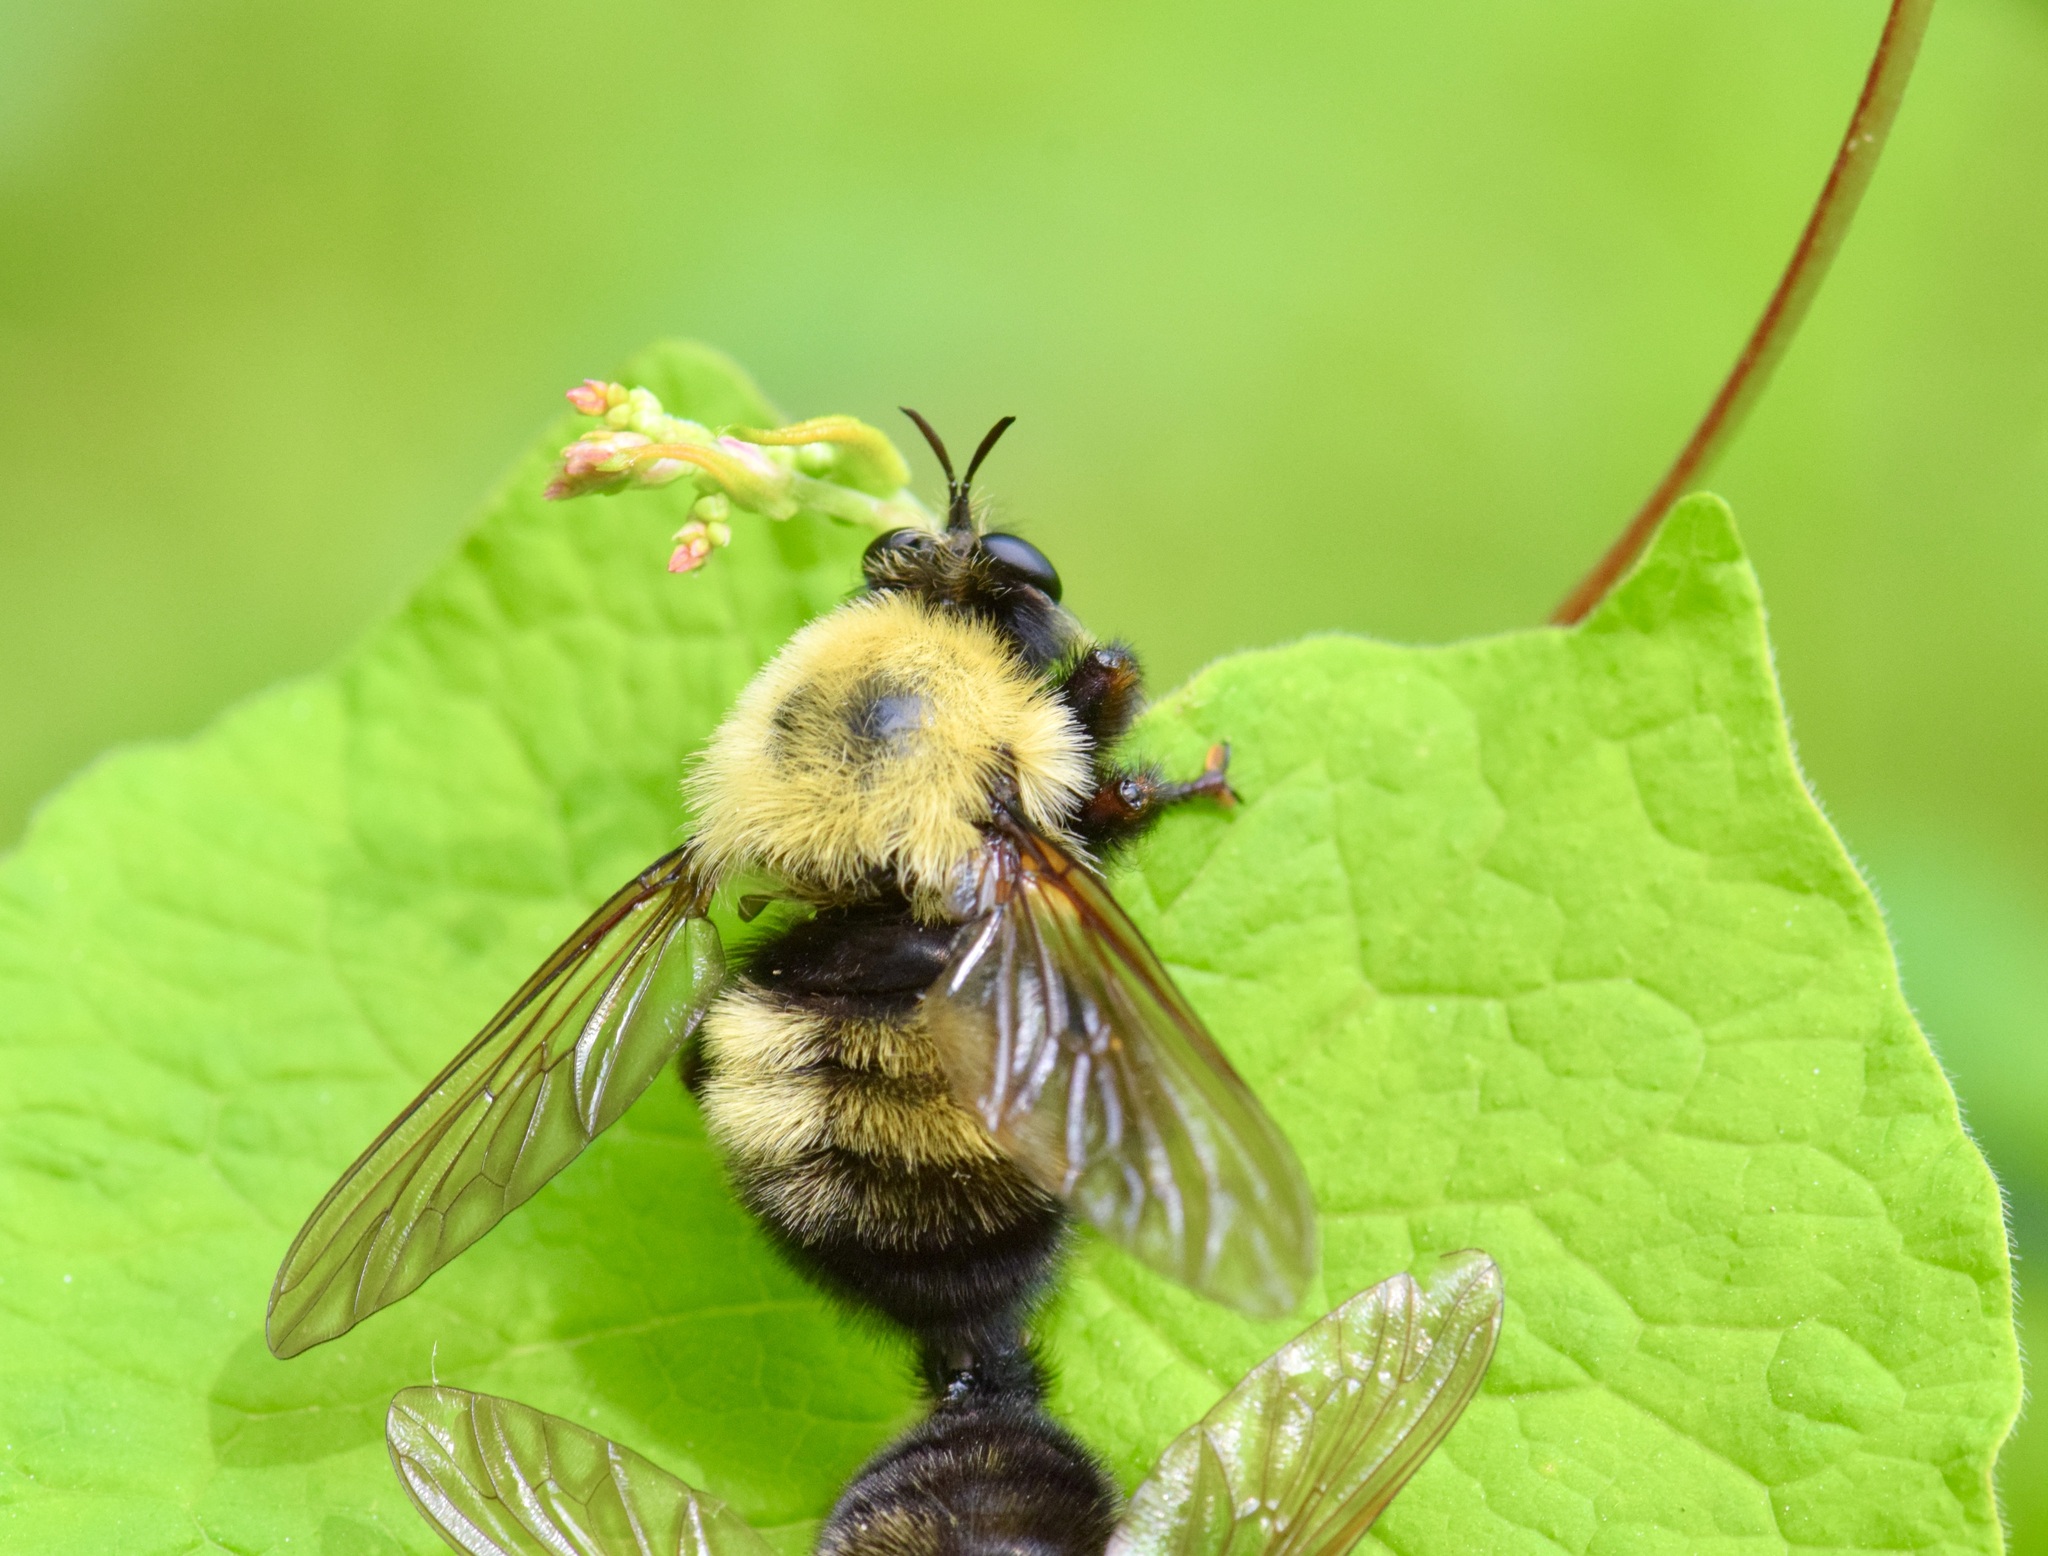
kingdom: Animalia
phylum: Arthropoda
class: Insecta
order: Diptera
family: Asilidae
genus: Laphria
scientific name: Laphria thoracica
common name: Bumble bee mimic robber fly
